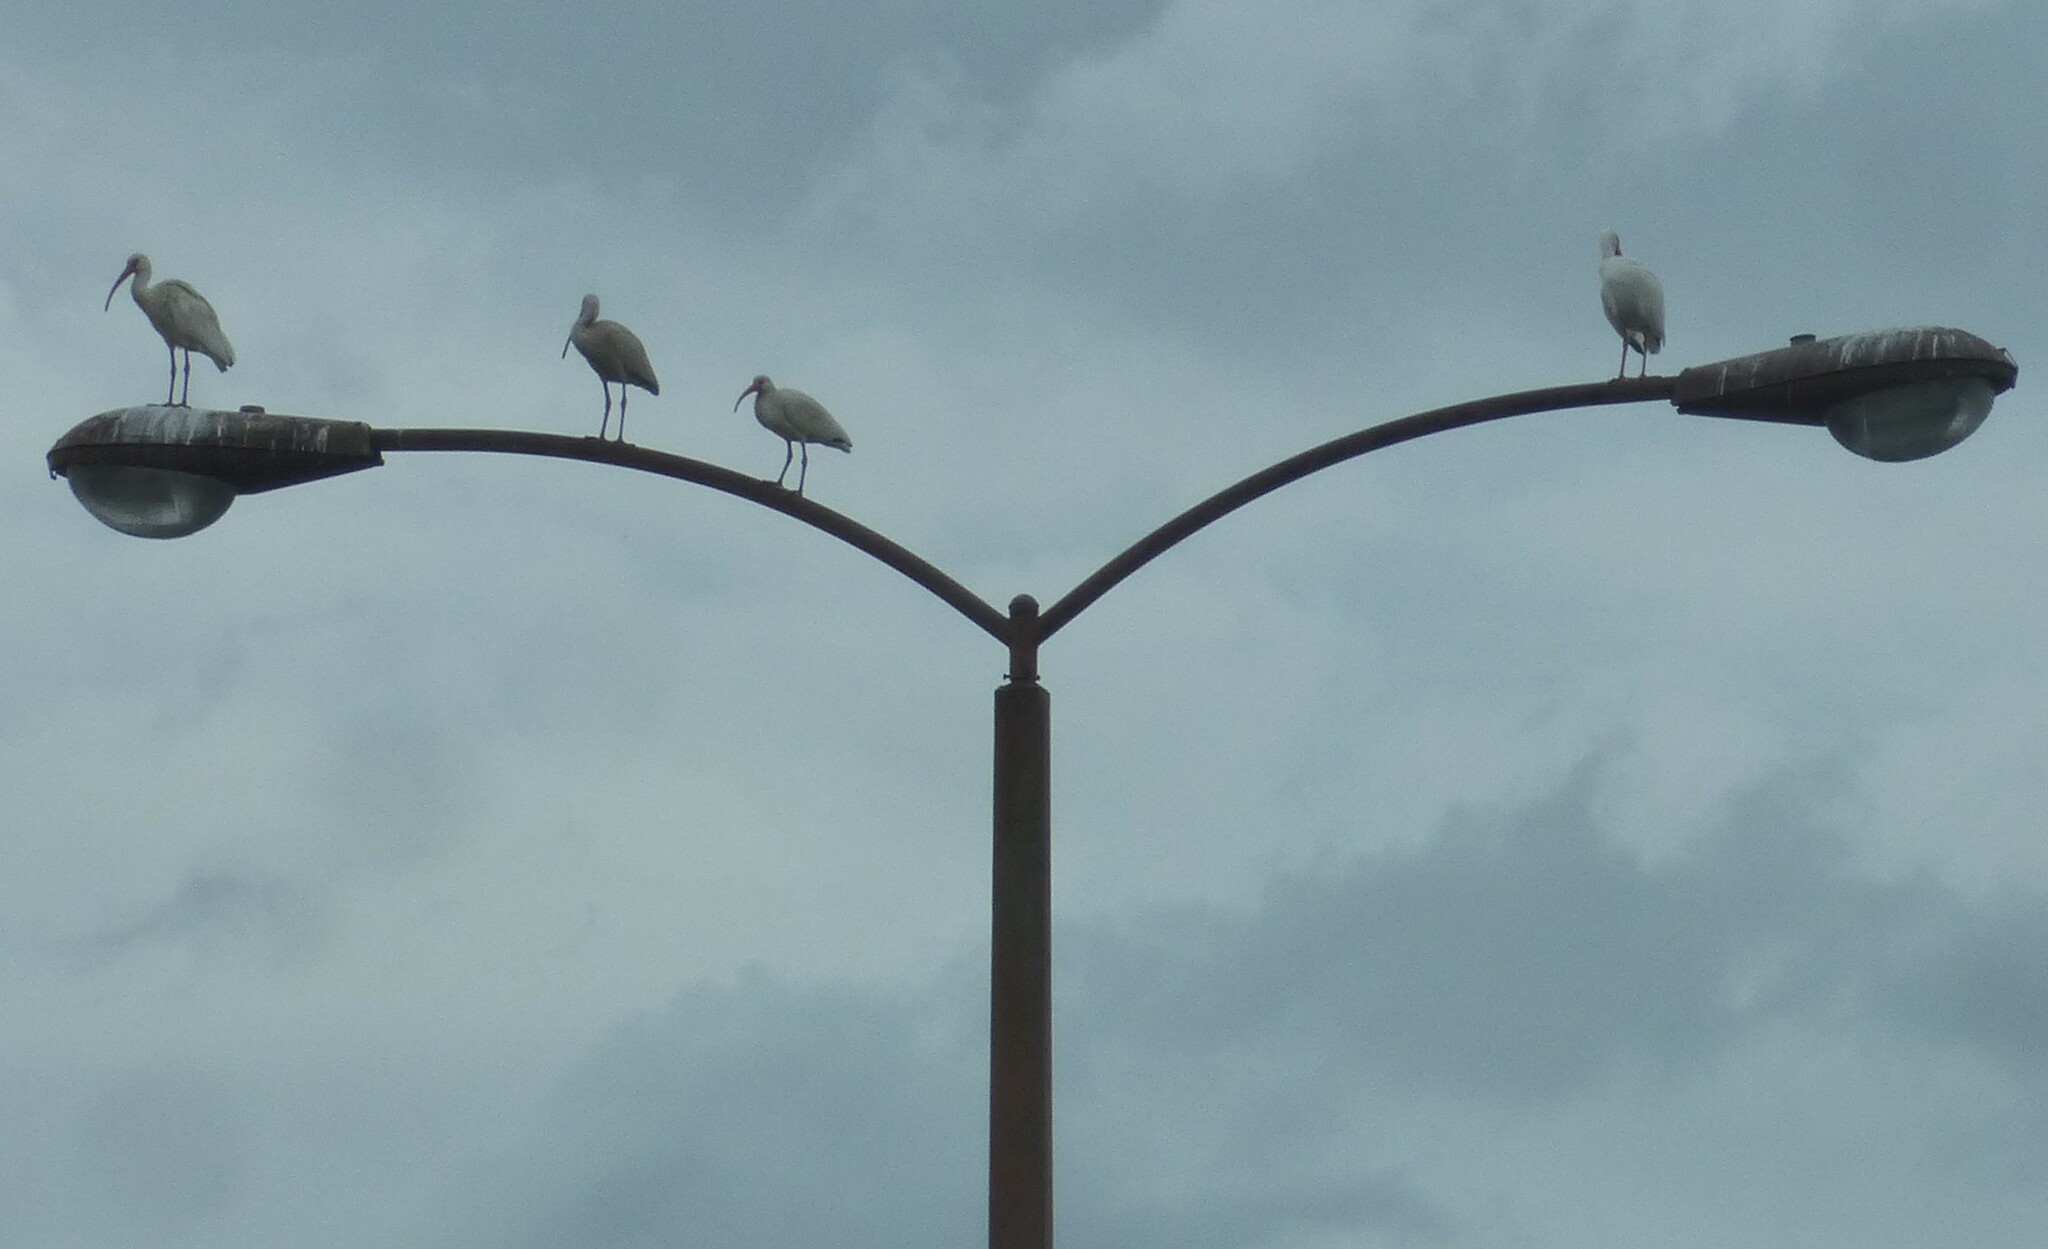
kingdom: Animalia
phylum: Chordata
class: Aves
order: Pelecaniformes
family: Threskiornithidae
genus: Eudocimus
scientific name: Eudocimus albus
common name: White ibis
